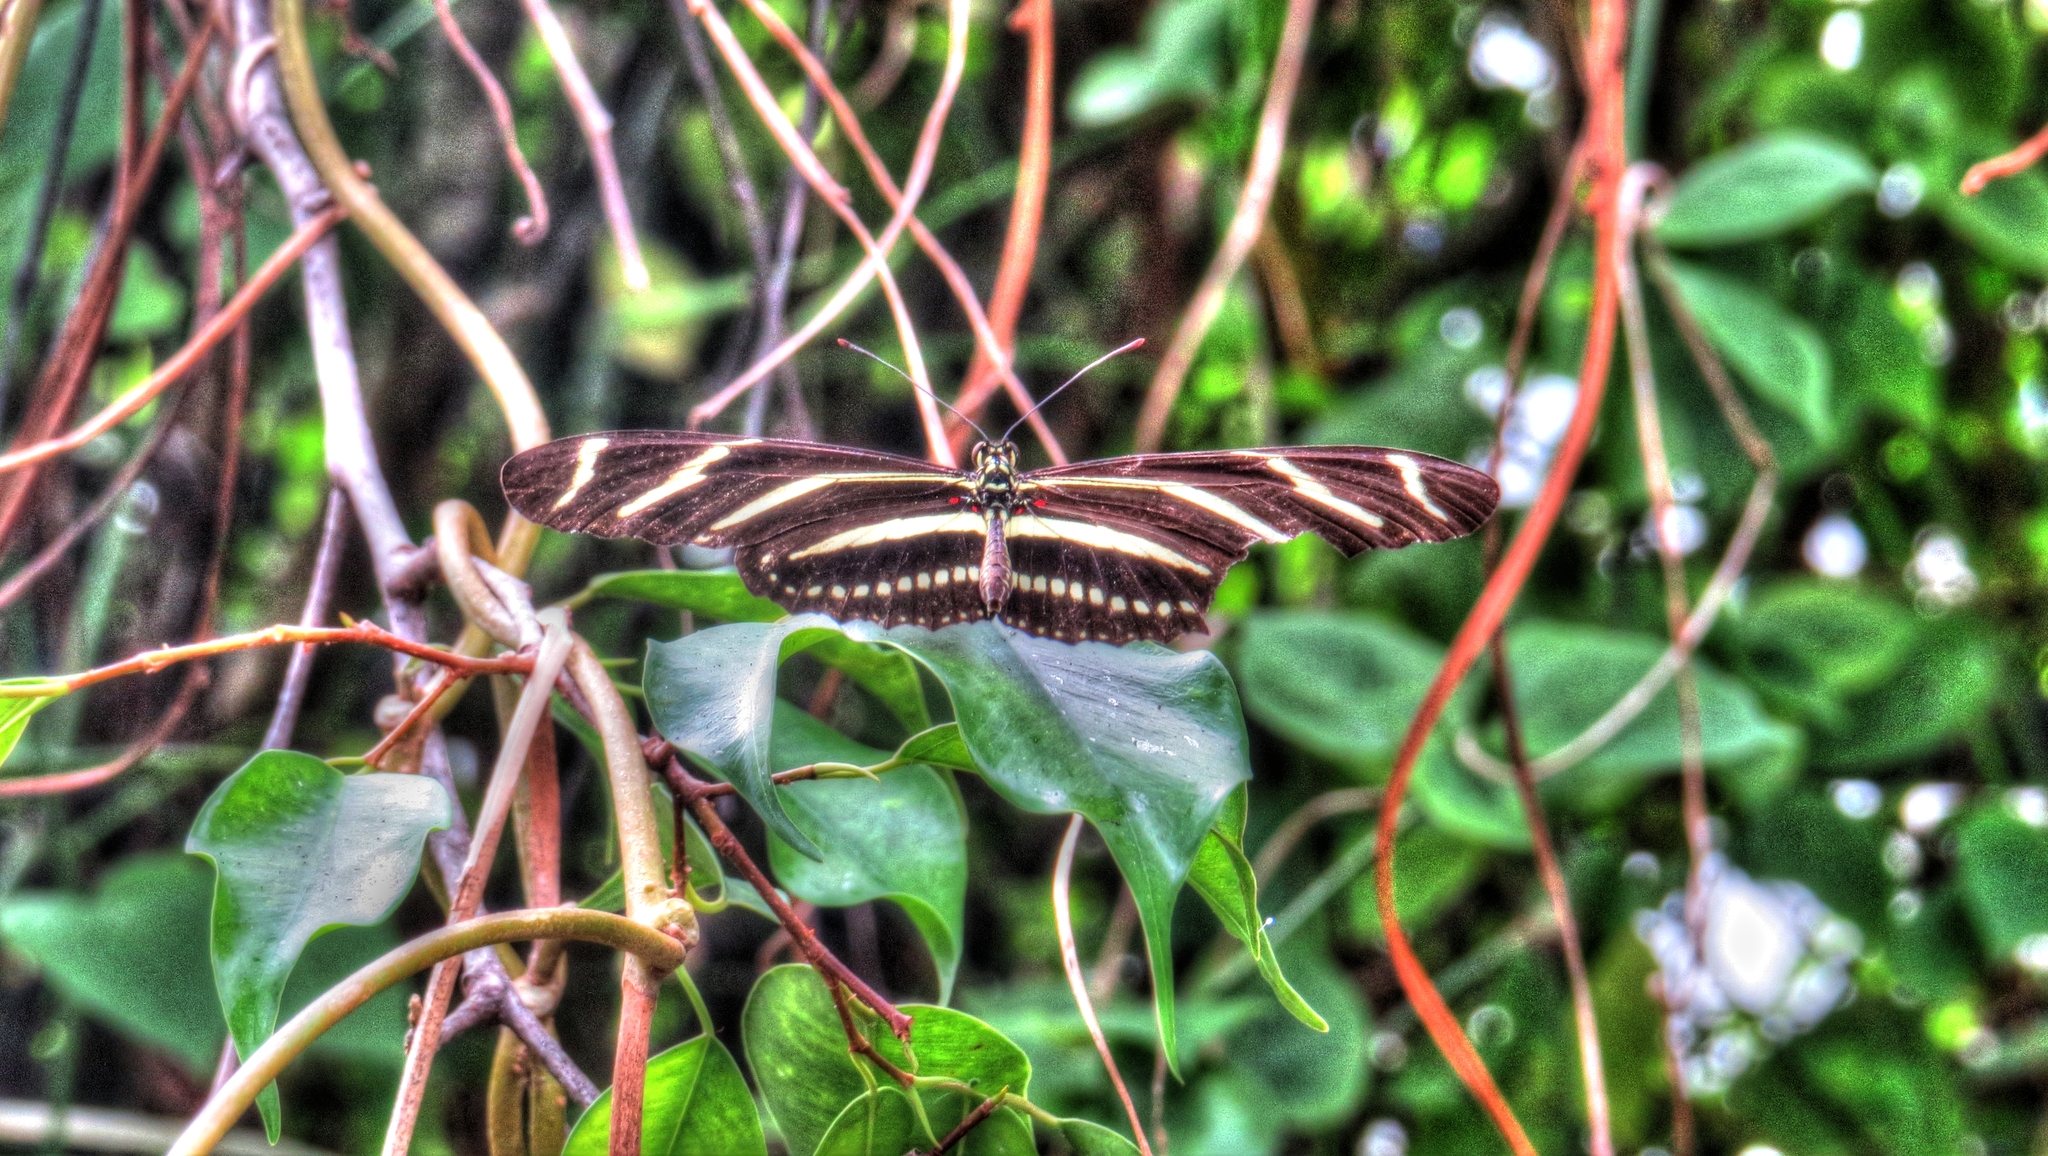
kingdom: Animalia
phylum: Arthropoda
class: Insecta
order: Lepidoptera
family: Nymphalidae
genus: Heliconius
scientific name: Heliconius charithonia
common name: Zebra long wing
